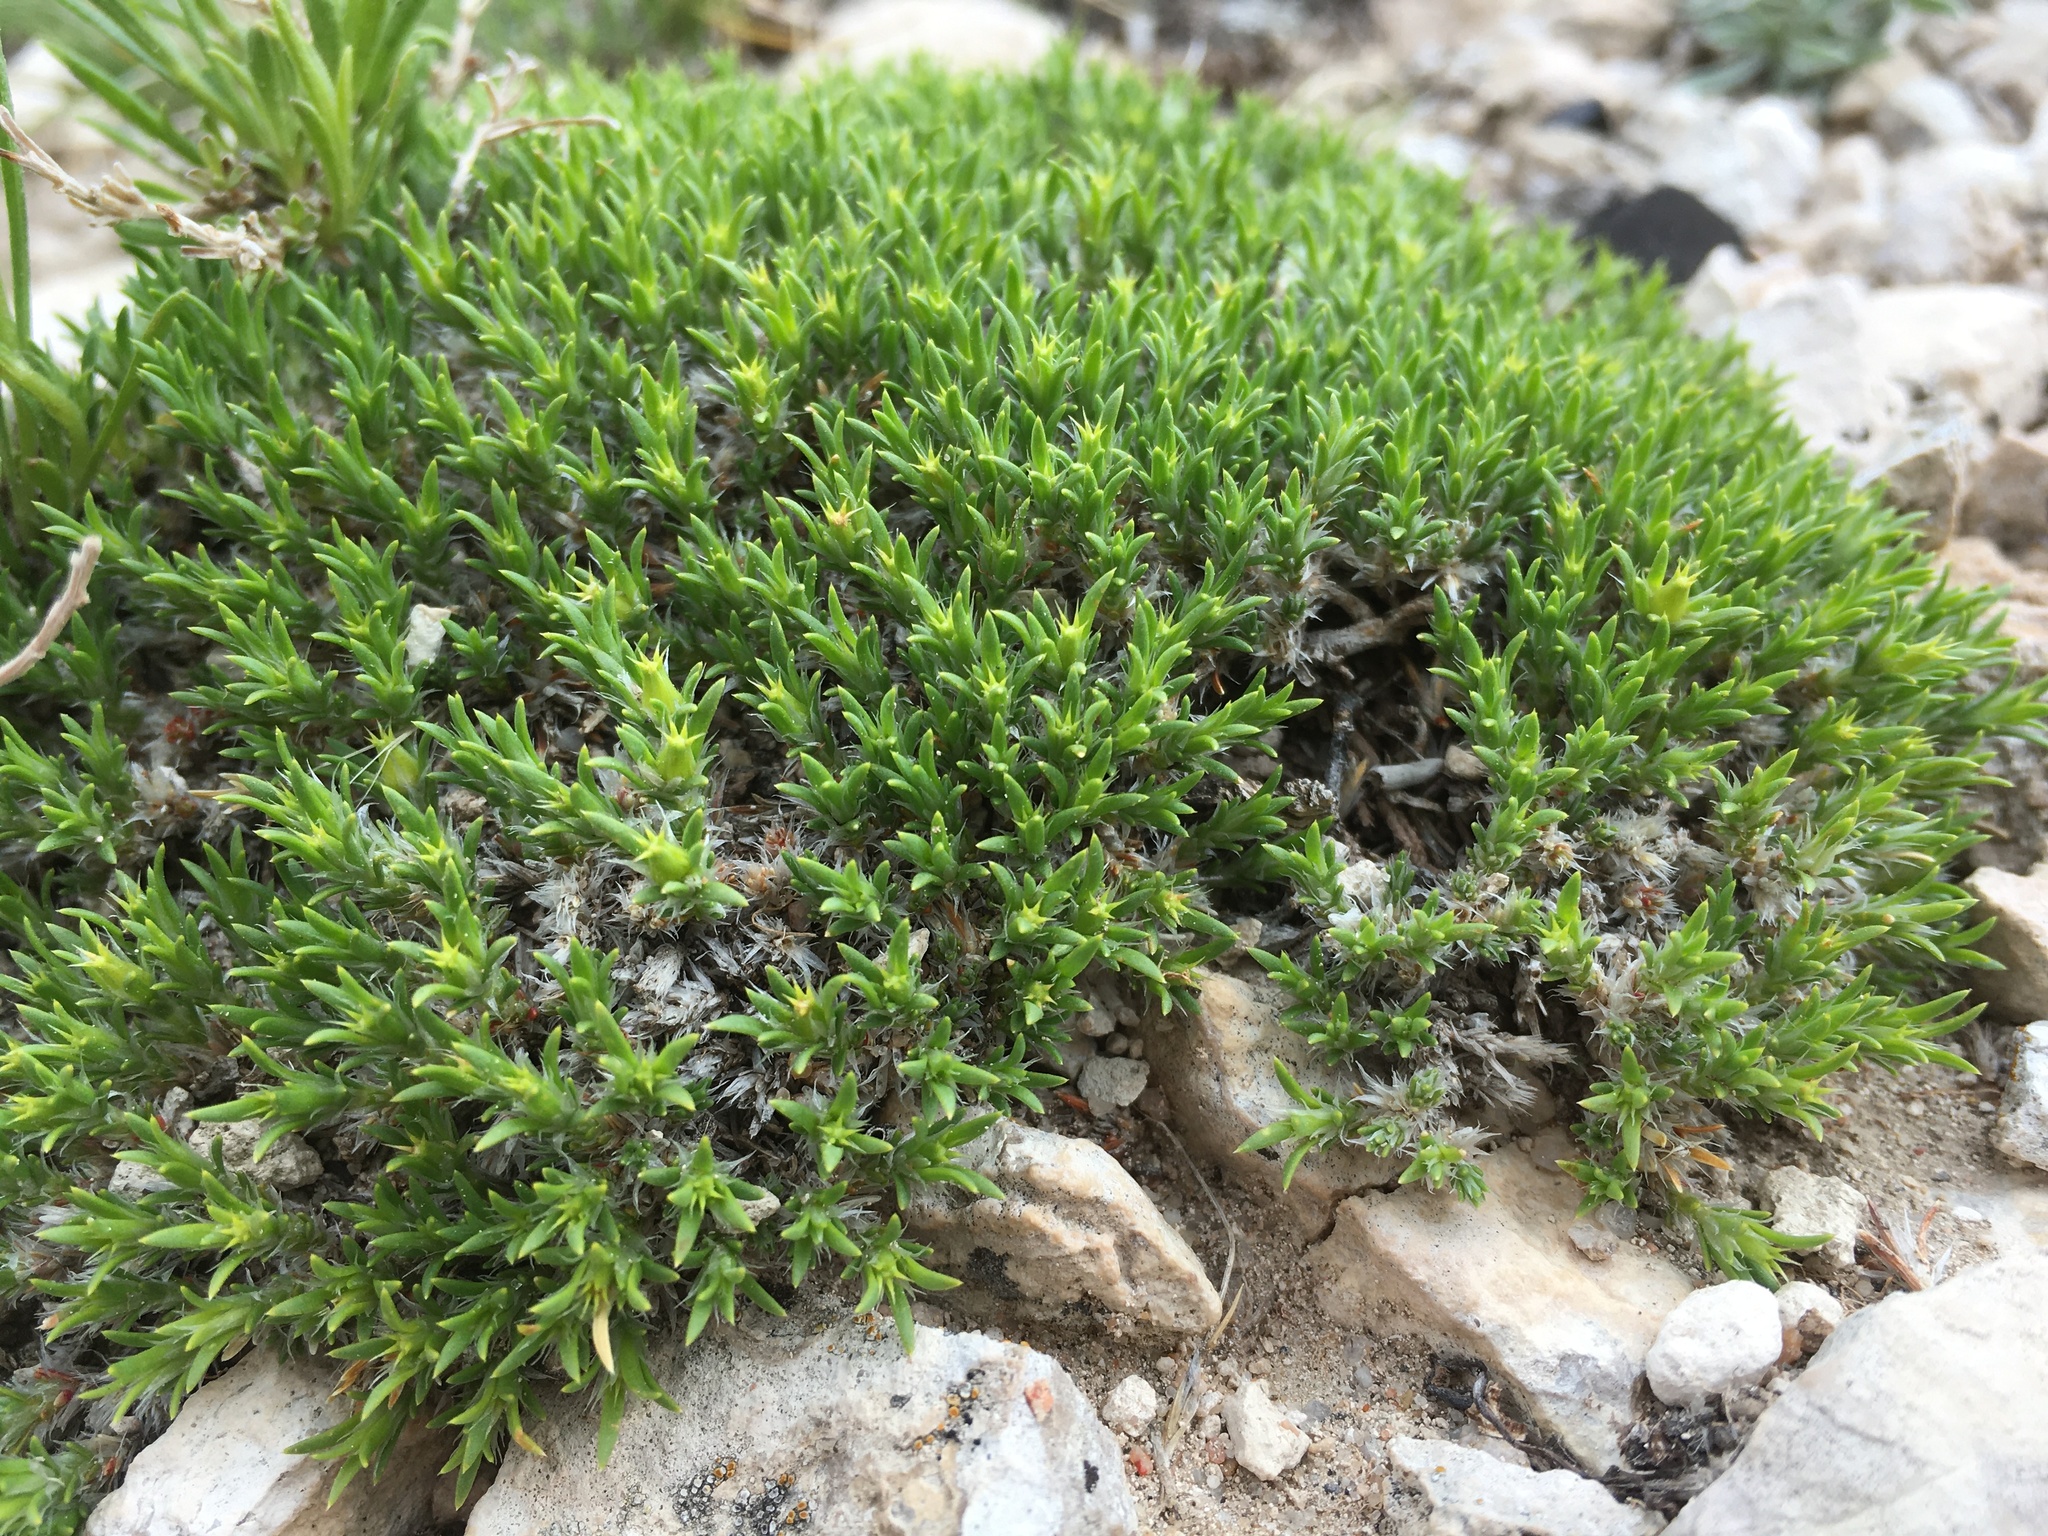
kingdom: Plantae
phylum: Tracheophyta
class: Magnoliopsida
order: Caryophyllales
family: Caryophyllaceae
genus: Paronychia
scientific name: Paronychia sessiliflora
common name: Creeping nailwort
